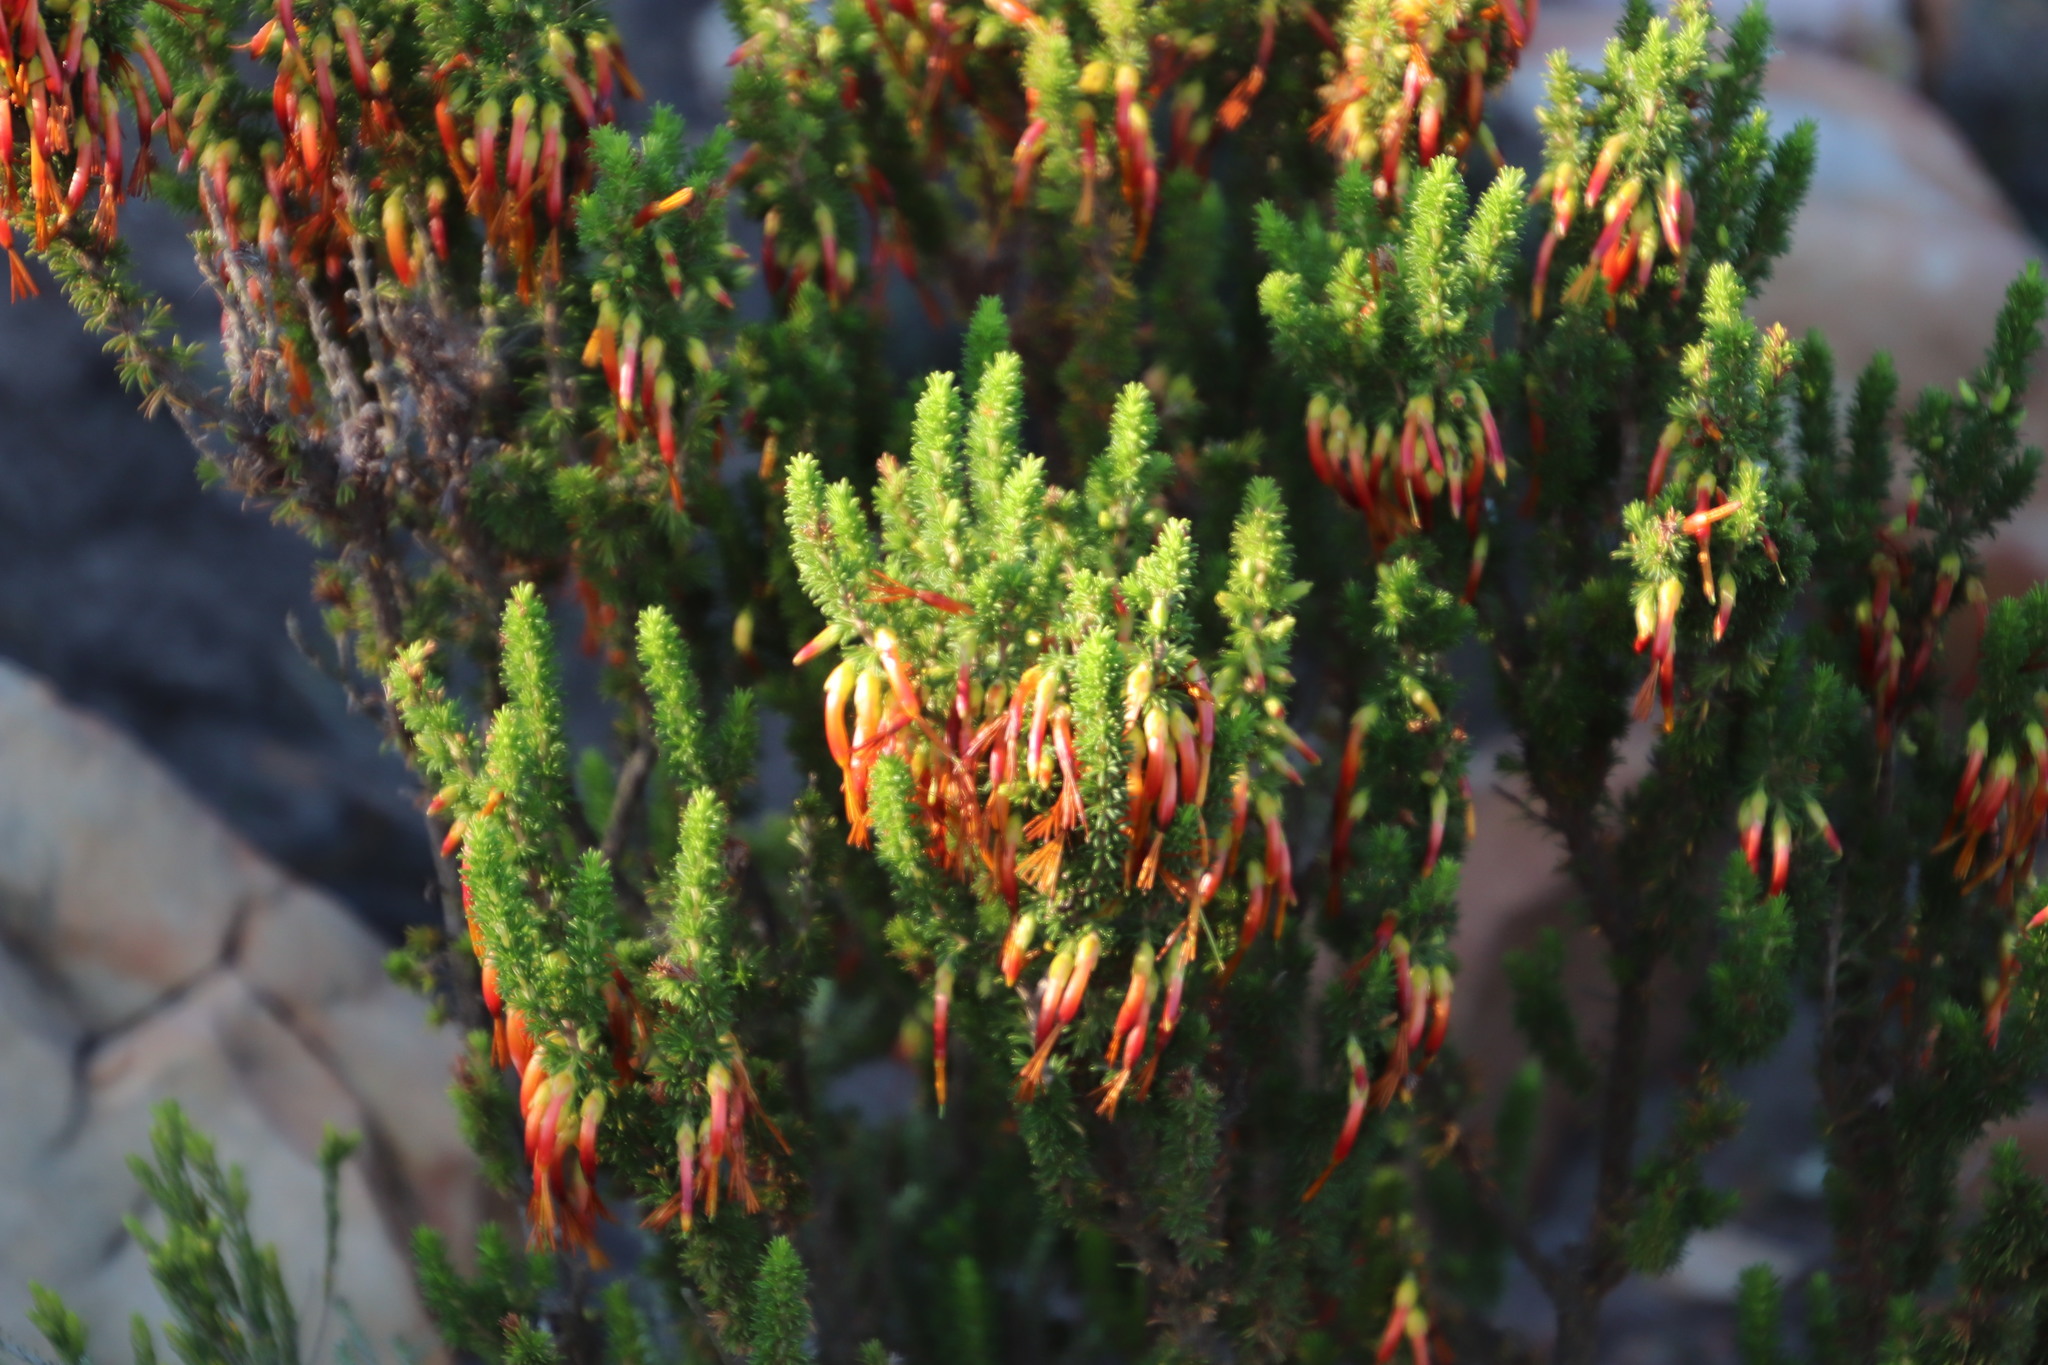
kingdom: Plantae
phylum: Tracheophyta
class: Magnoliopsida
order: Ericales
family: Ericaceae
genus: Erica
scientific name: Erica coccinea
